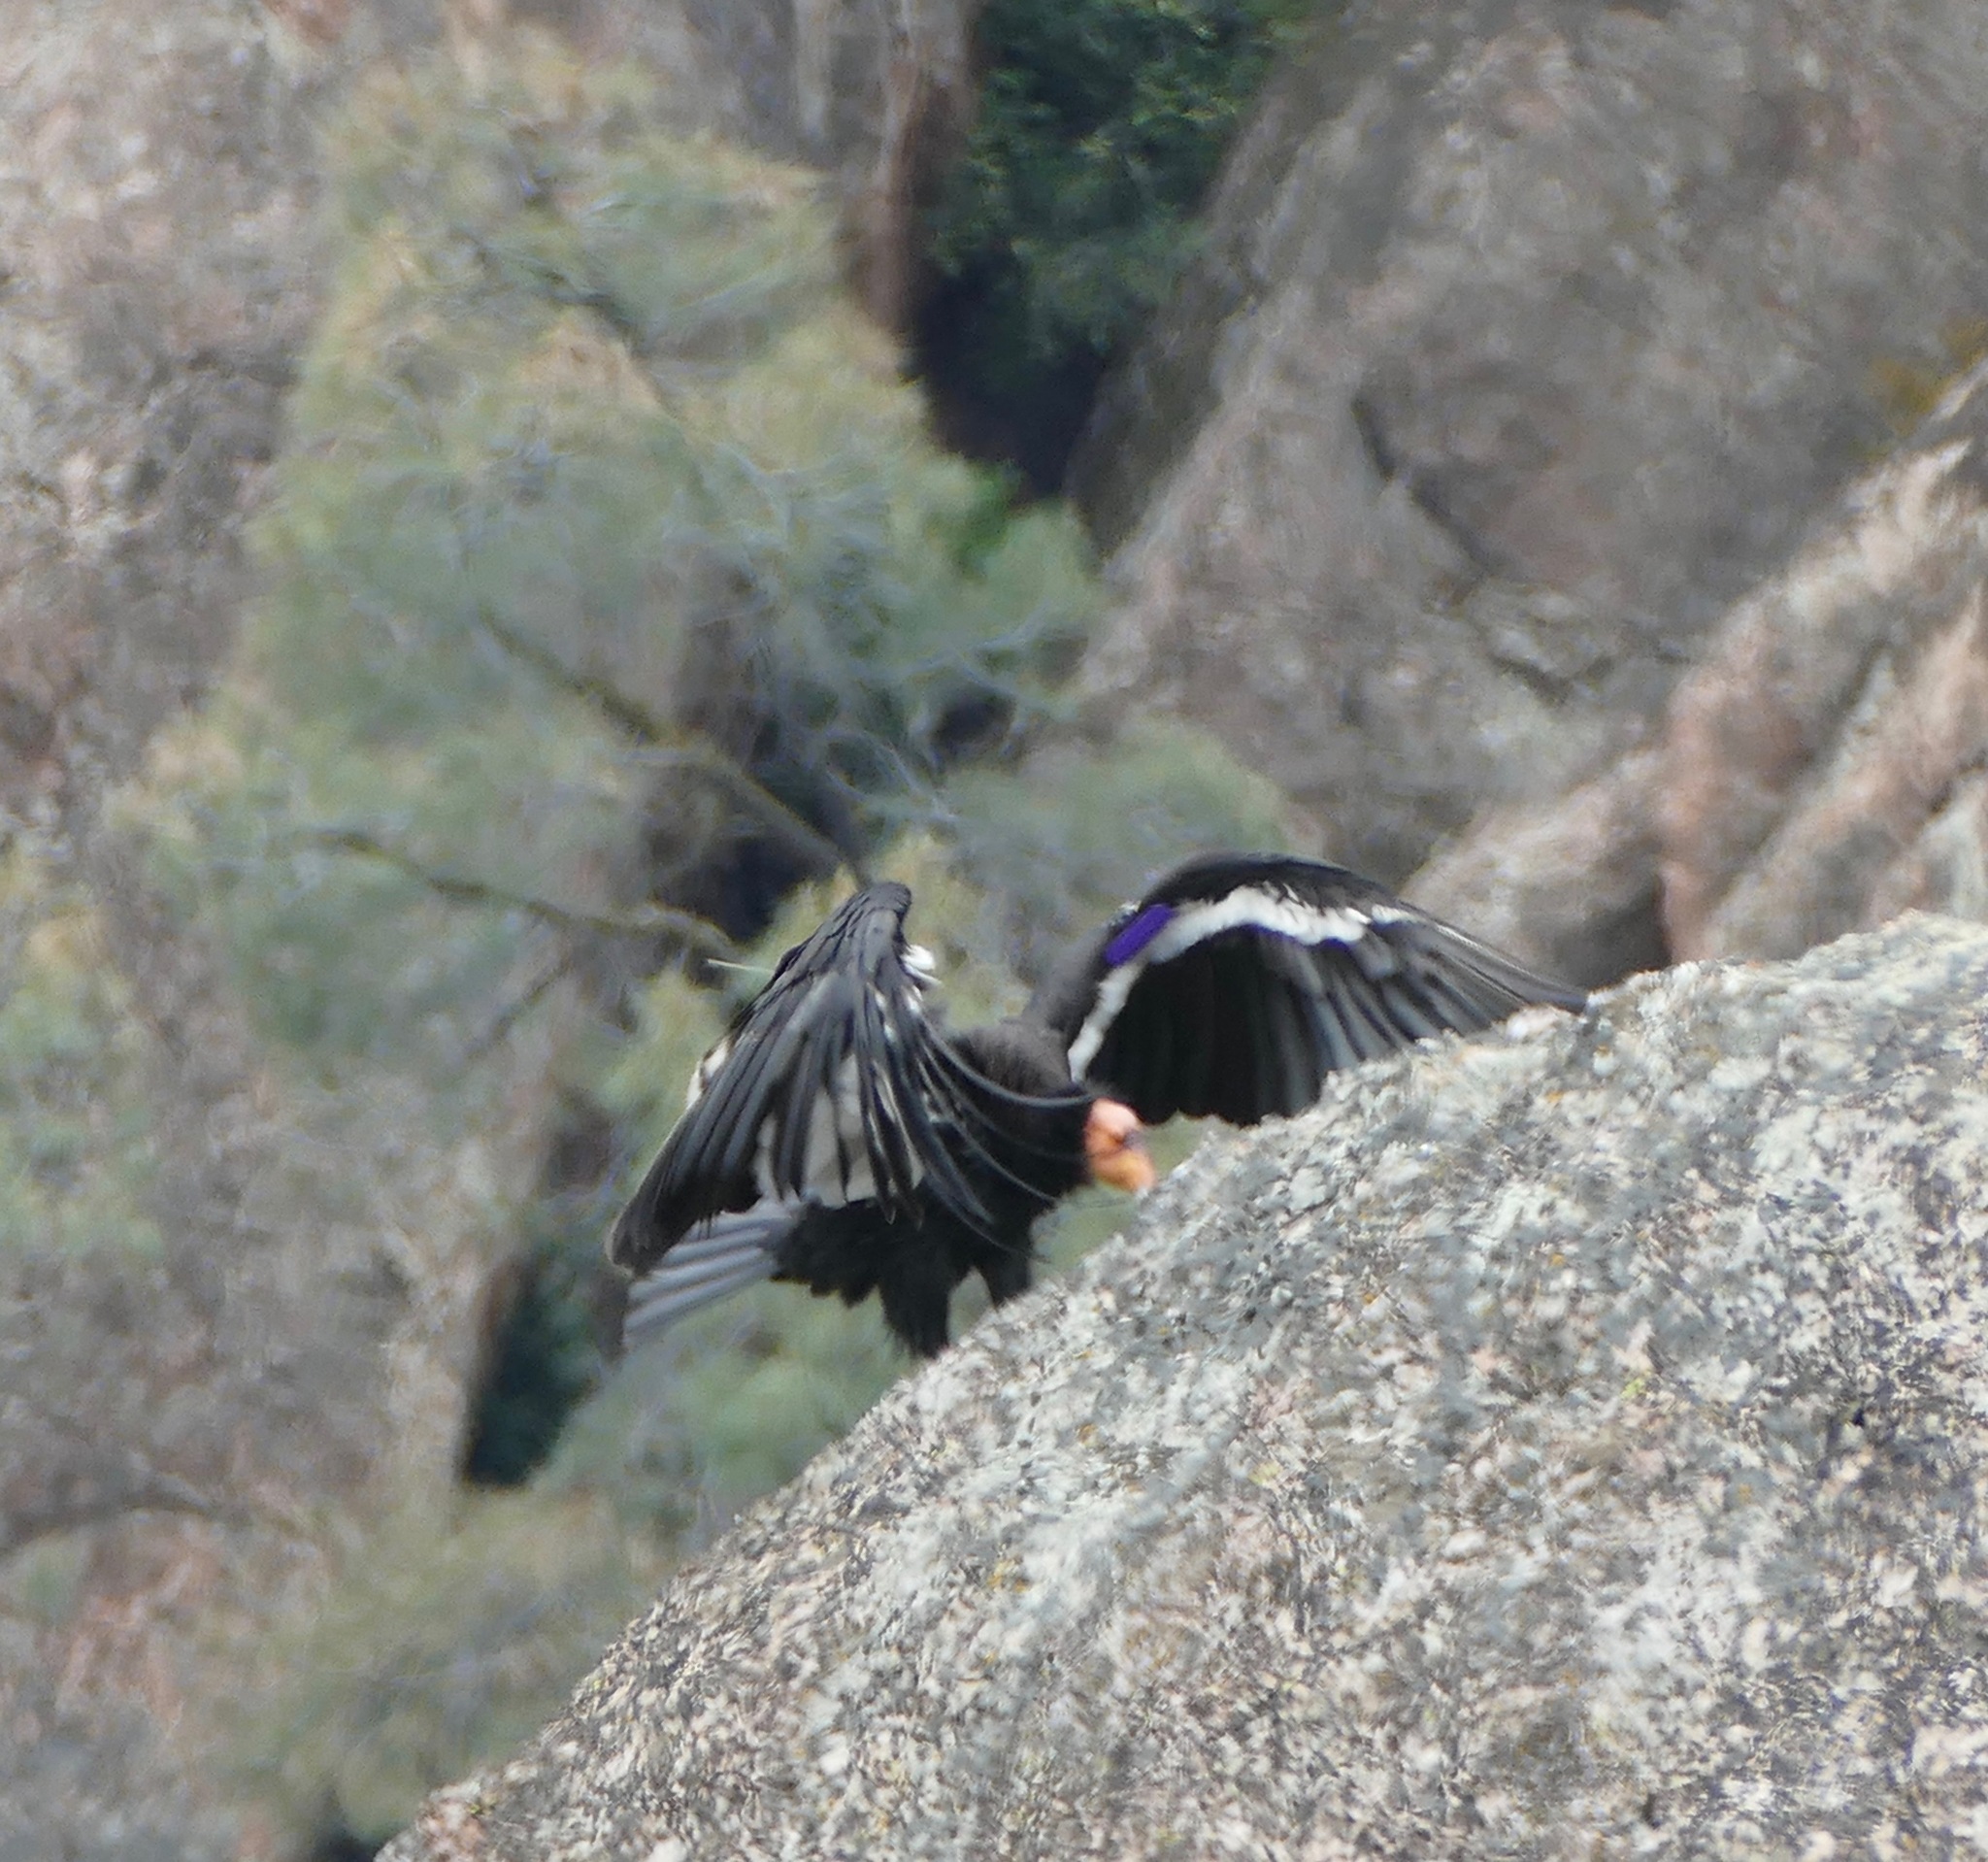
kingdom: Animalia
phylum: Chordata
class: Aves
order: Accipitriformes
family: Cathartidae
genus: Gymnogyps
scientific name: Gymnogyps californianus
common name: California condor
